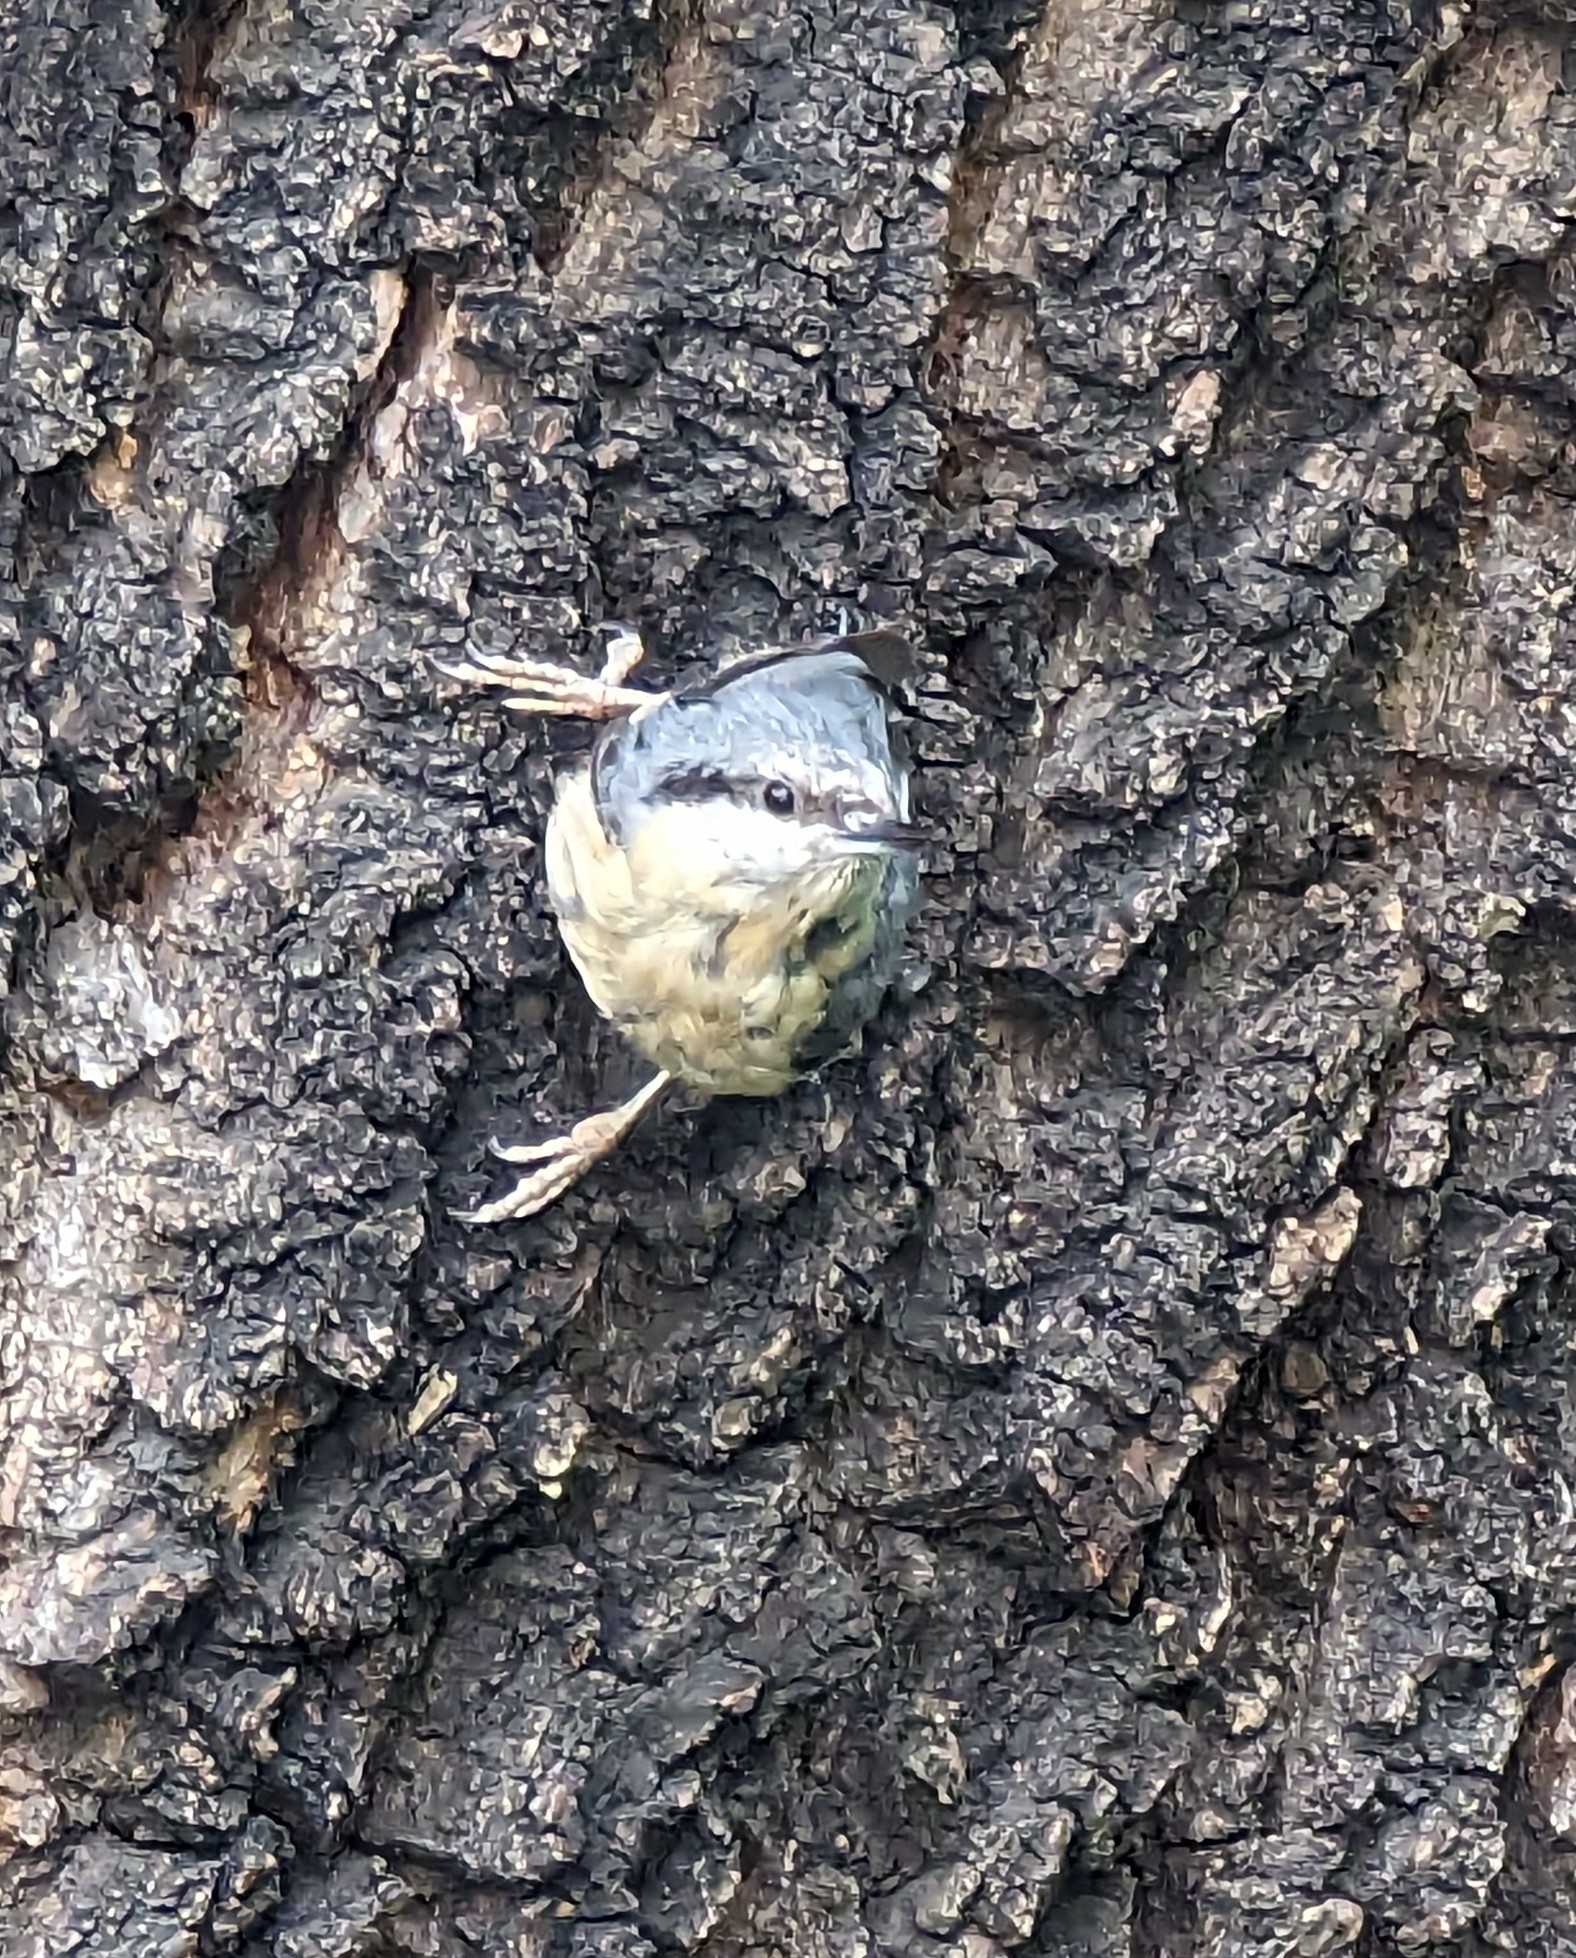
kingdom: Animalia
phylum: Chordata
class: Aves
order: Passeriformes
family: Sittidae
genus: Sitta
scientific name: Sitta europaea
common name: Eurasian nuthatch
